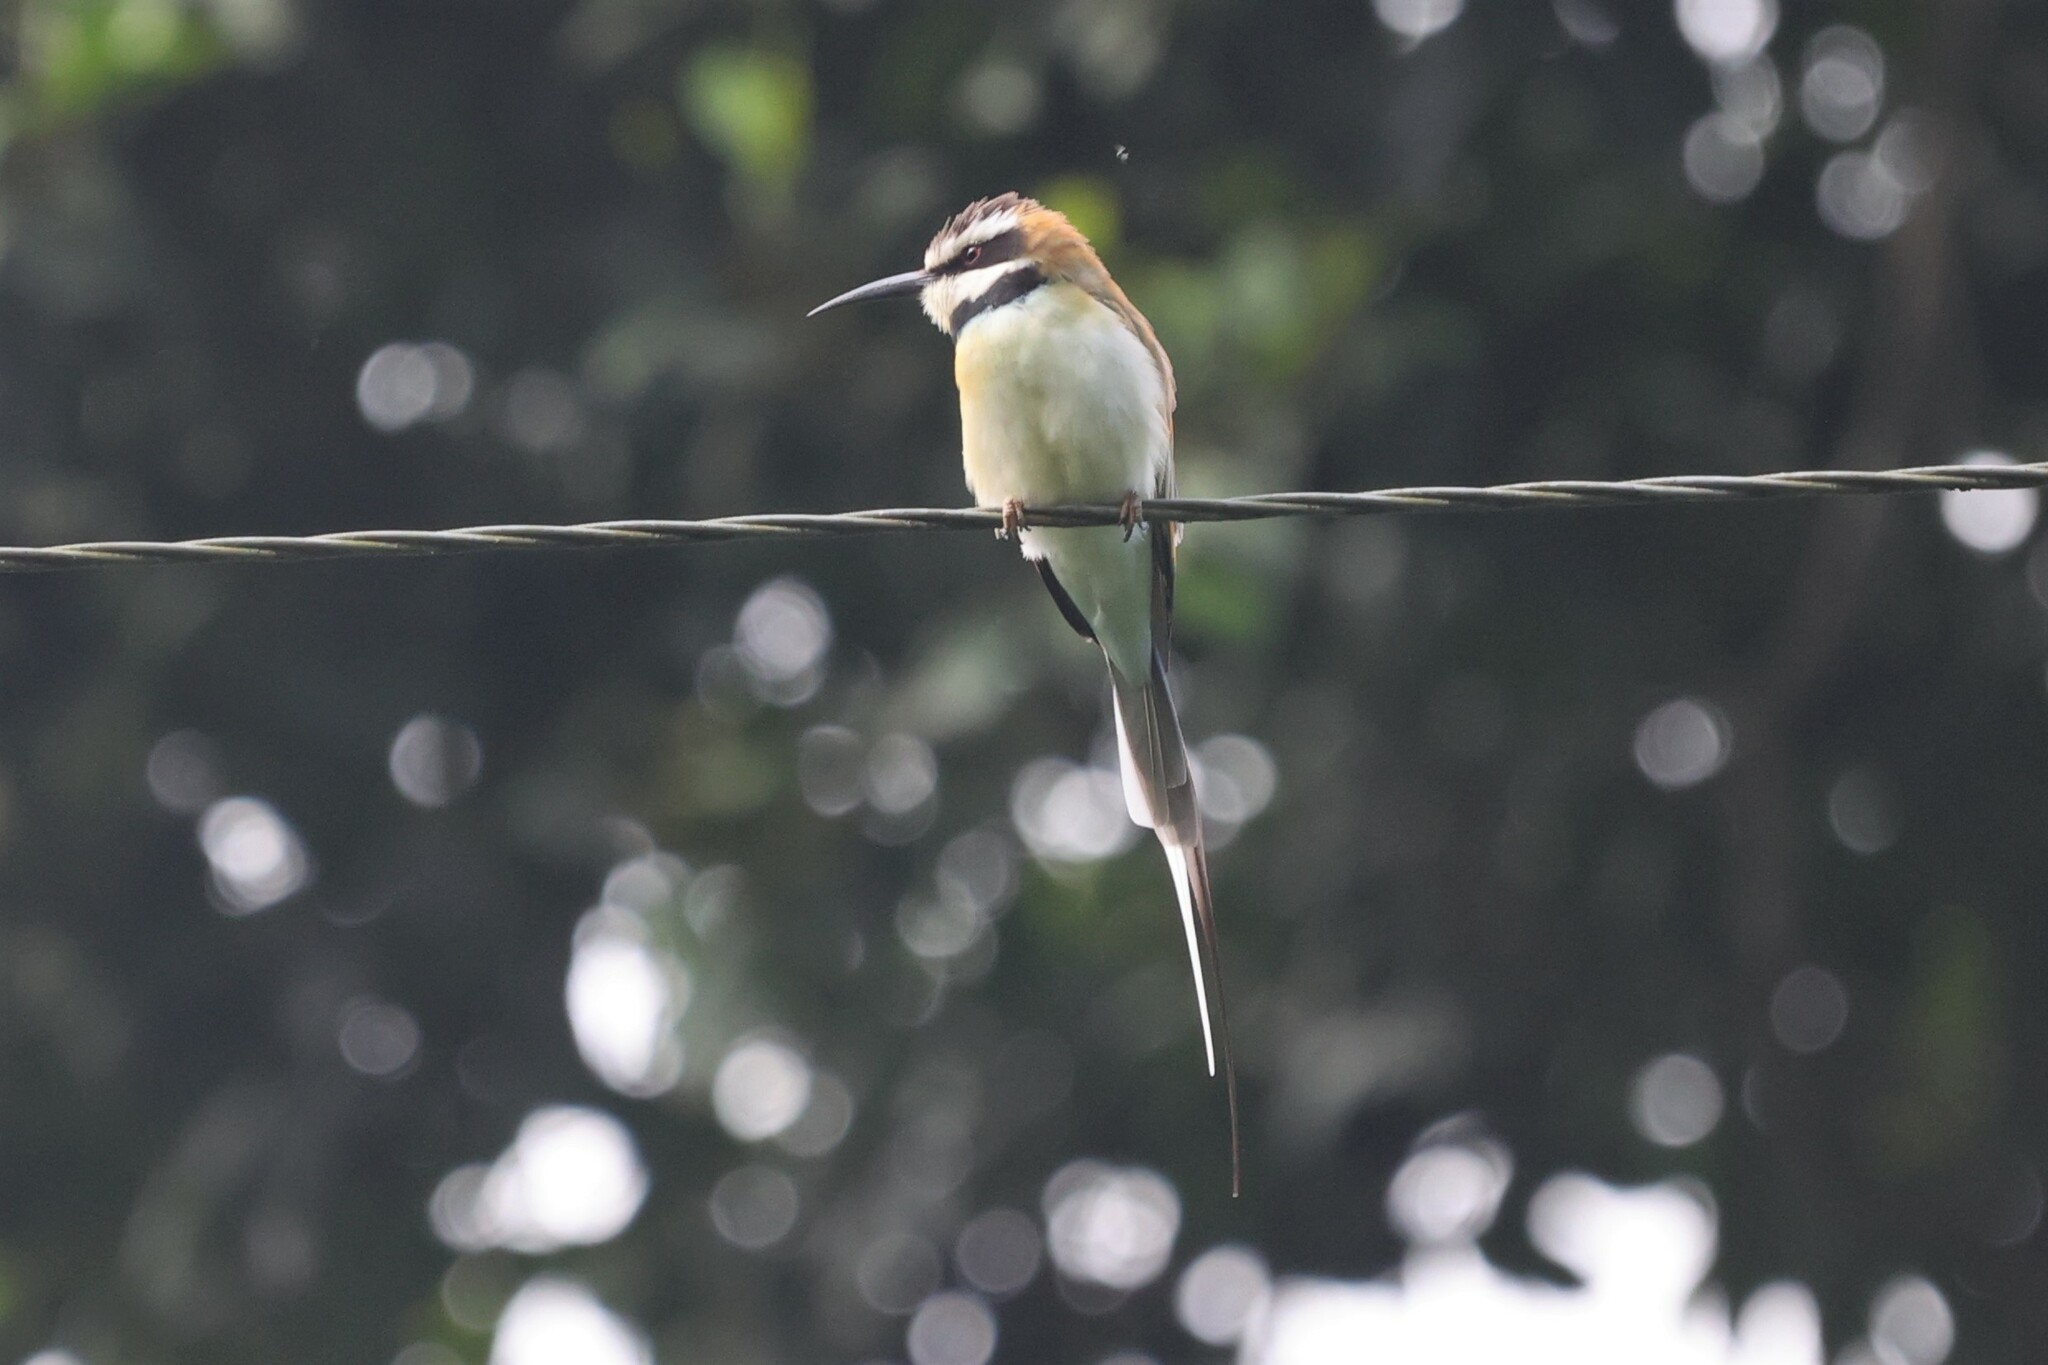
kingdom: Animalia
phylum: Chordata
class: Aves
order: Coraciiformes
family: Meropidae
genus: Merops
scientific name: Merops albicollis
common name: White-throated bee-eater
